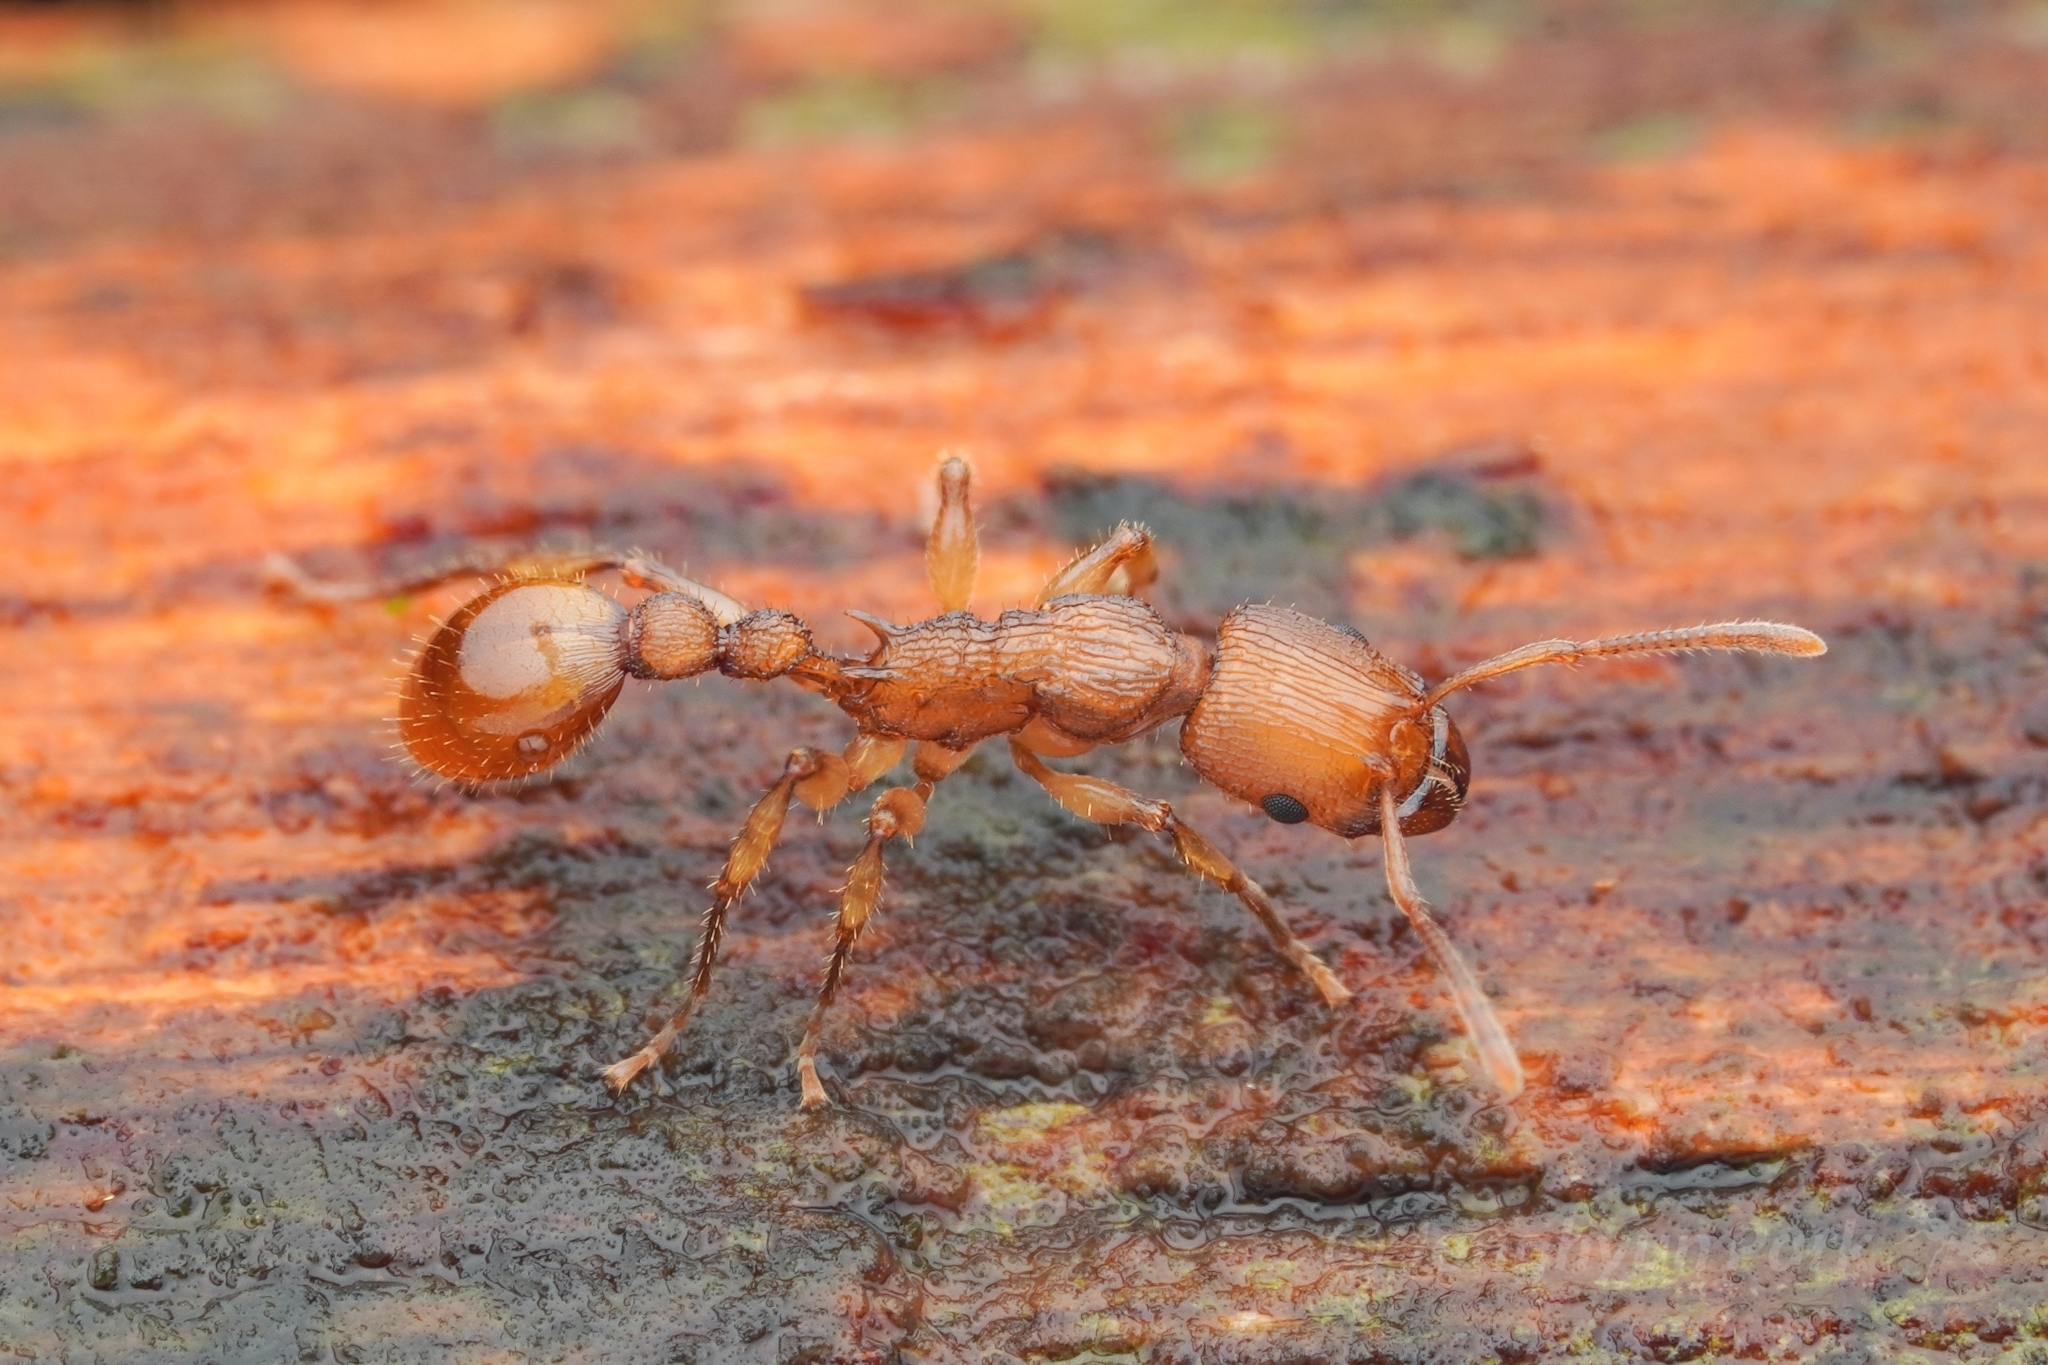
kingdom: Animalia
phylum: Arthropoda
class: Insecta
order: Hymenoptera
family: Formicidae
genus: Paratopula
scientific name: Paratopula macta
